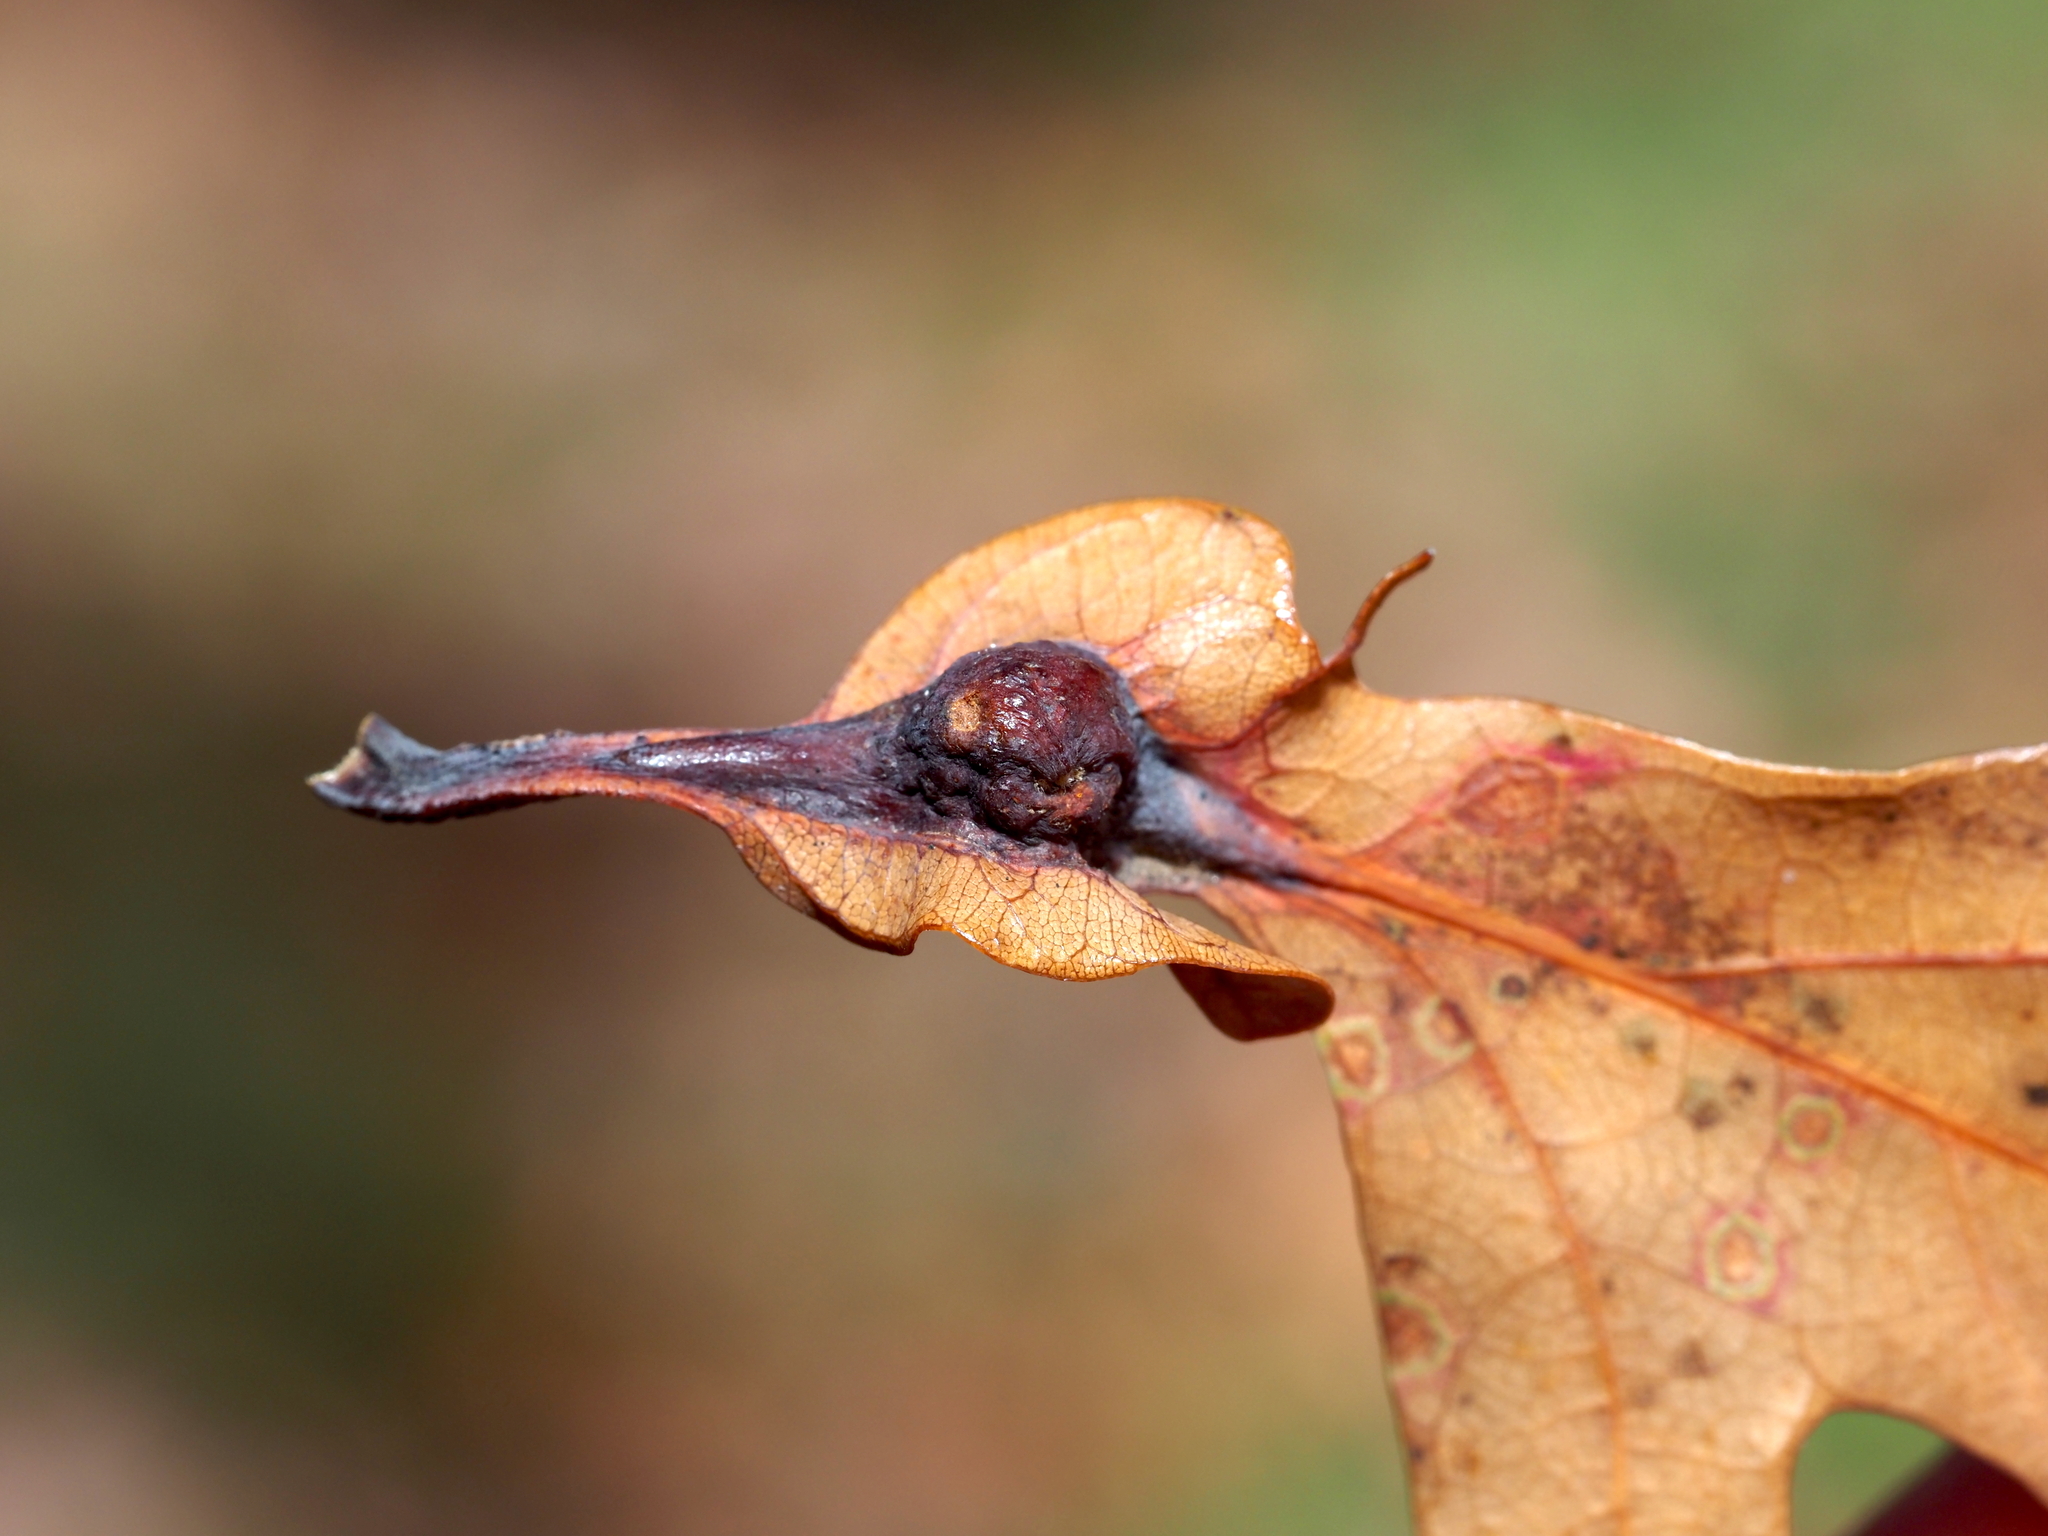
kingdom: Animalia
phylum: Arthropoda
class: Insecta
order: Hymenoptera
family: Cynipidae
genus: Andricus
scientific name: Andricus
